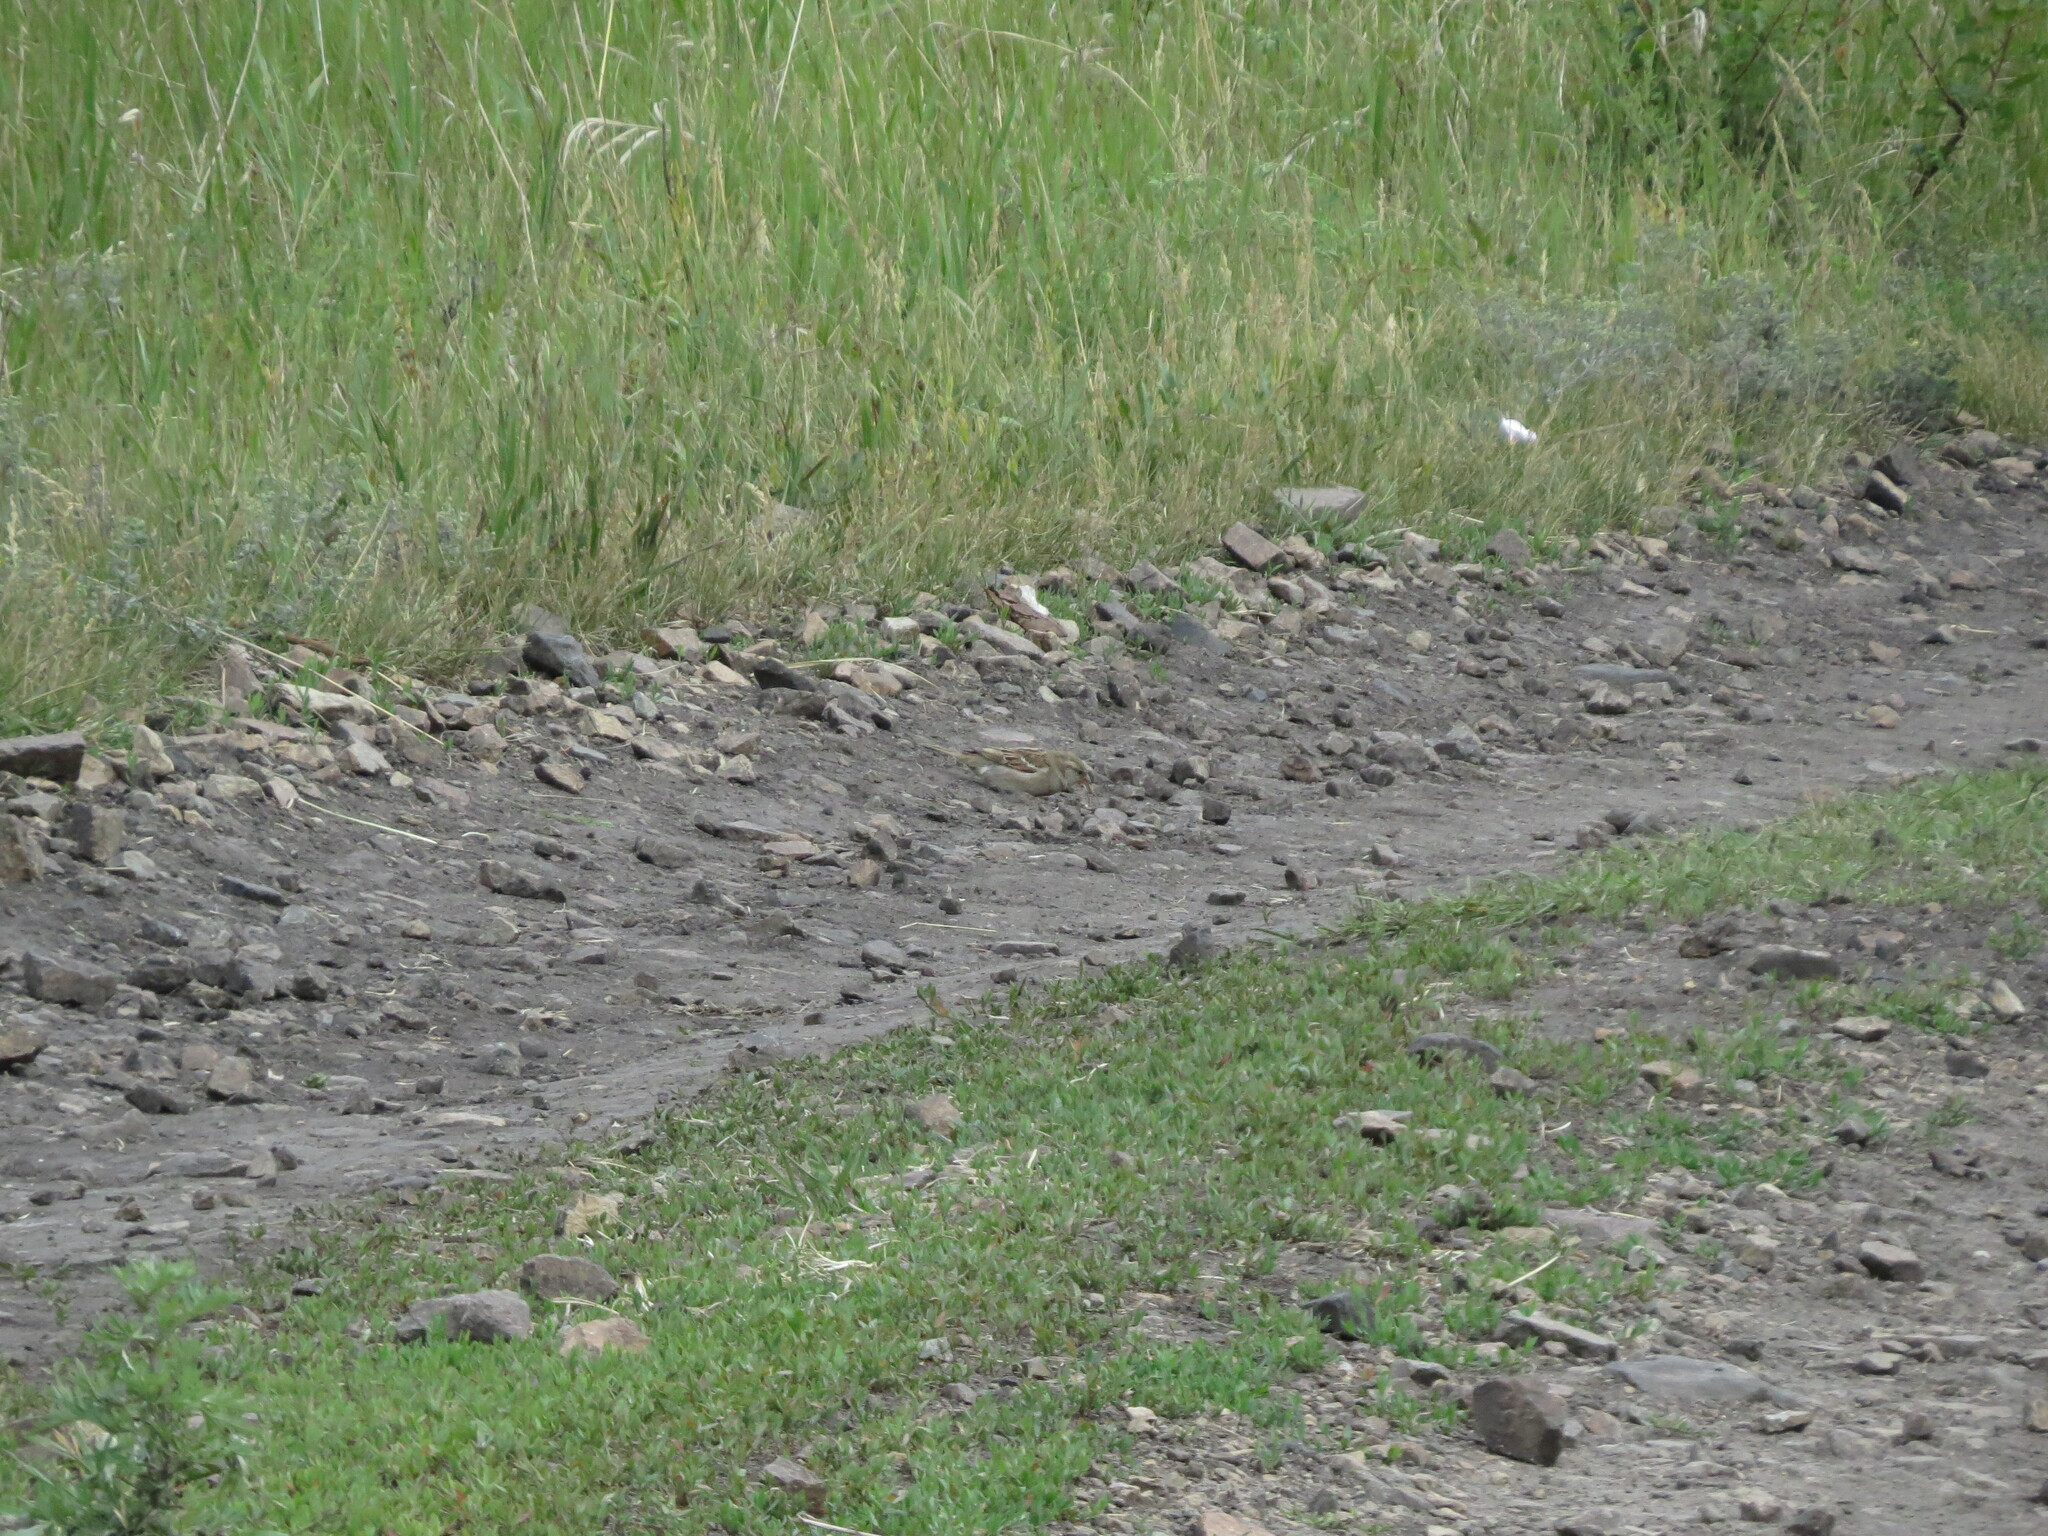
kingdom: Animalia
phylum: Chordata
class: Aves
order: Passeriformes
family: Passeridae
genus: Passer
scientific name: Passer domesticus
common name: House sparrow
